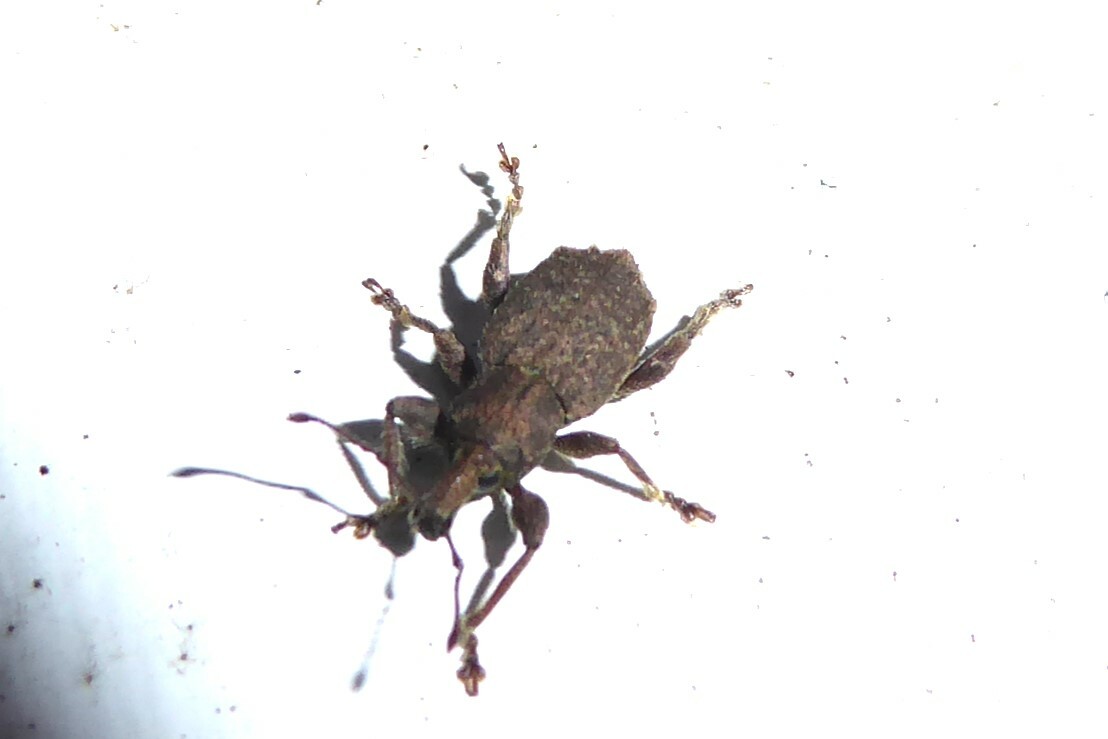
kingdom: Animalia
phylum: Arthropoda
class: Insecta
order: Coleoptera
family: Curculionidae
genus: Chalepistes
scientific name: Chalepistes rubidus
